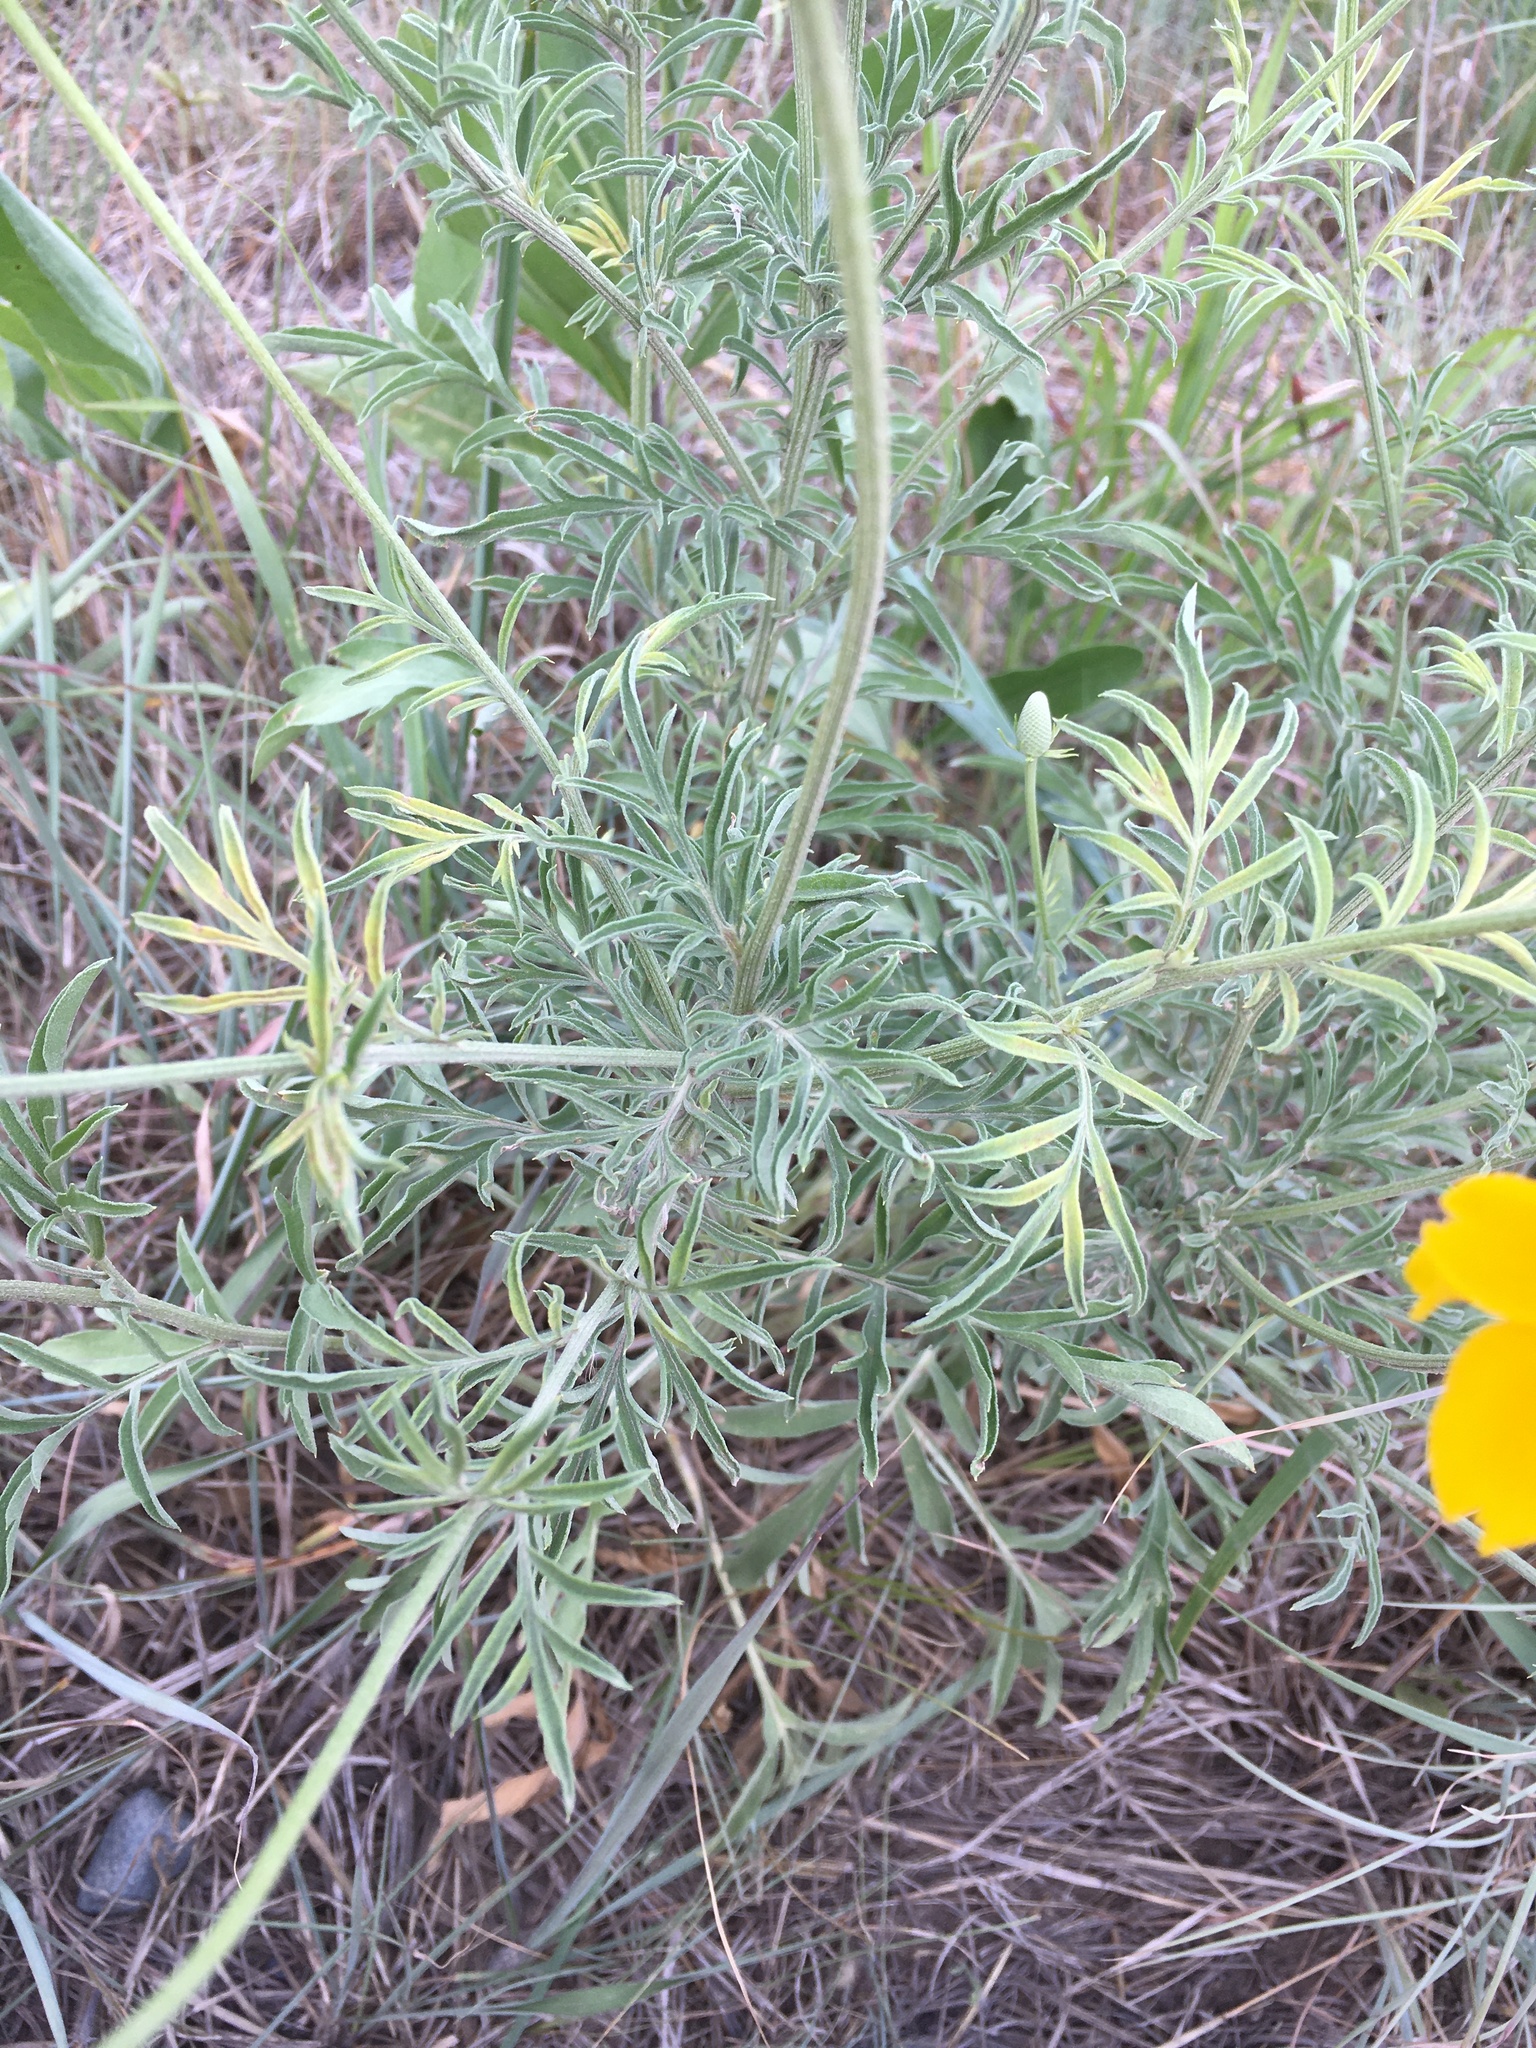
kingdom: Plantae
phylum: Tracheophyta
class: Magnoliopsida
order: Asterales
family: Asteraceae
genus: Ratibida
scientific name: Ratibida columnifera
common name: Prairie coneflower
